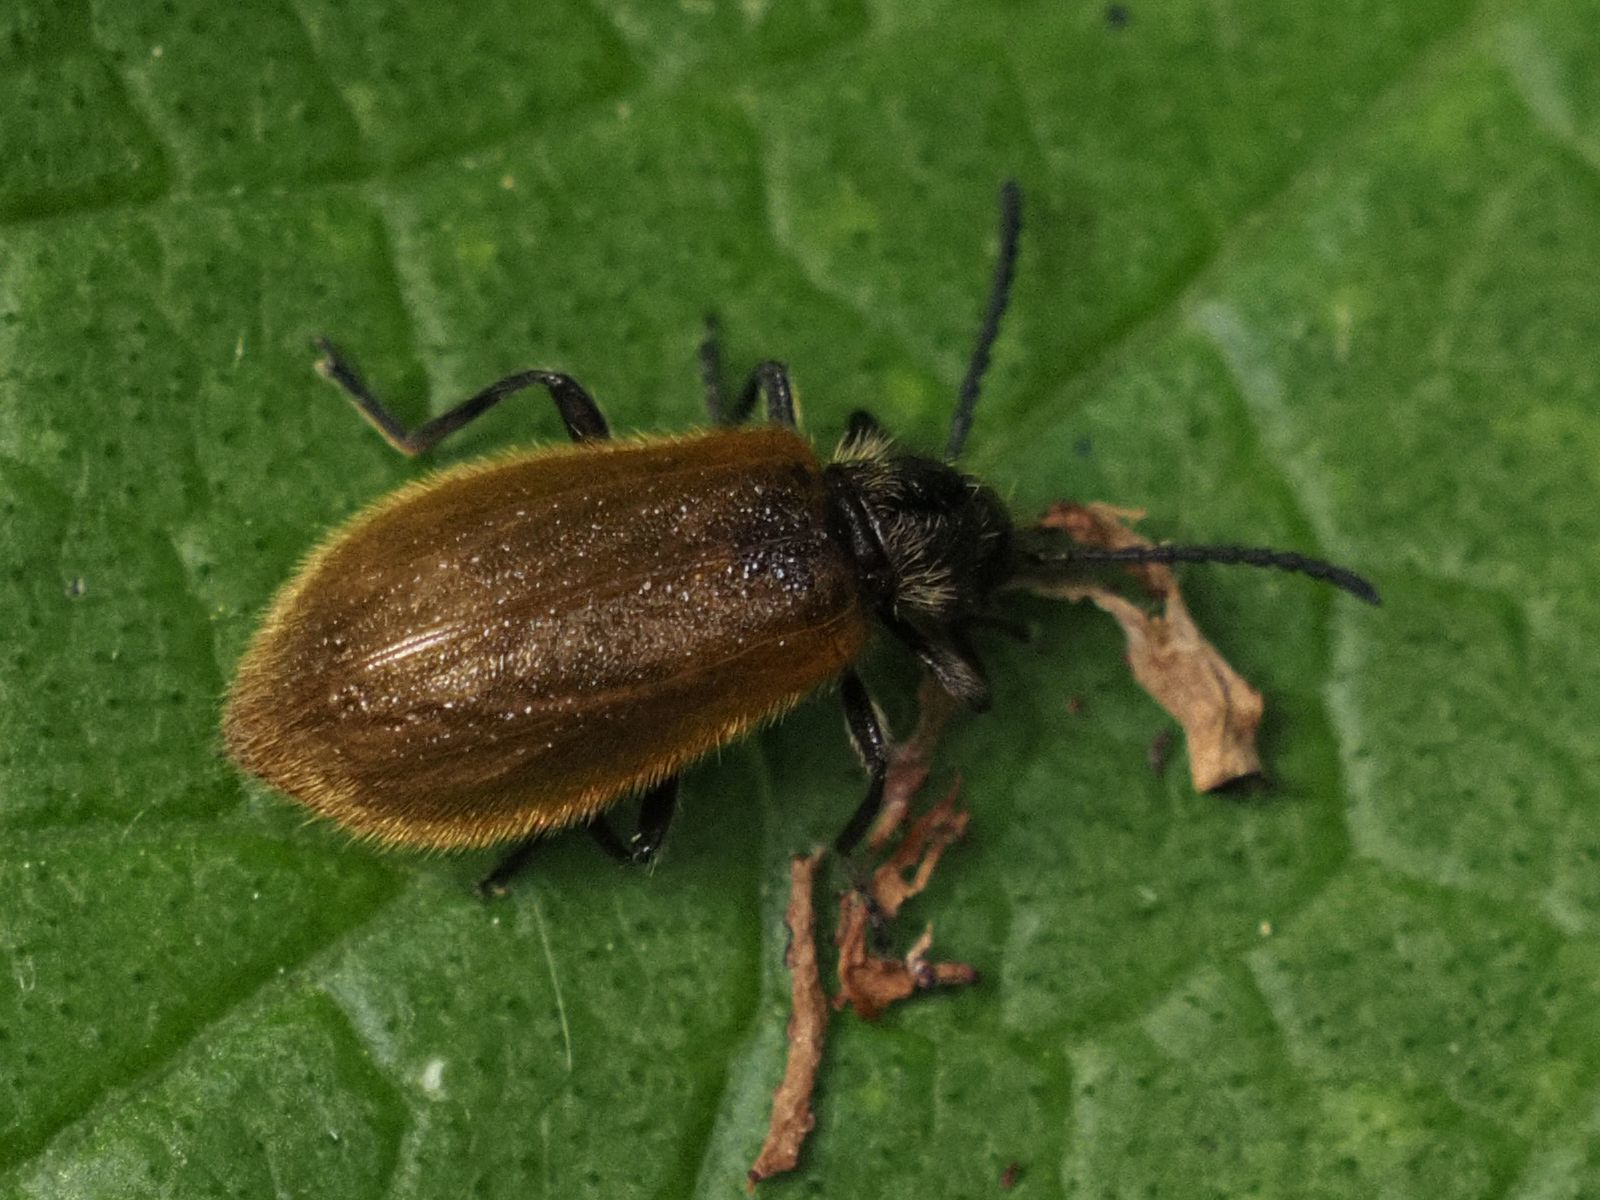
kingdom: Animalia
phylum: Arthropoda
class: Insecta
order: Coleoptera
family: Tenebrionidae
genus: Lagria
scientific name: Lagria hirta
